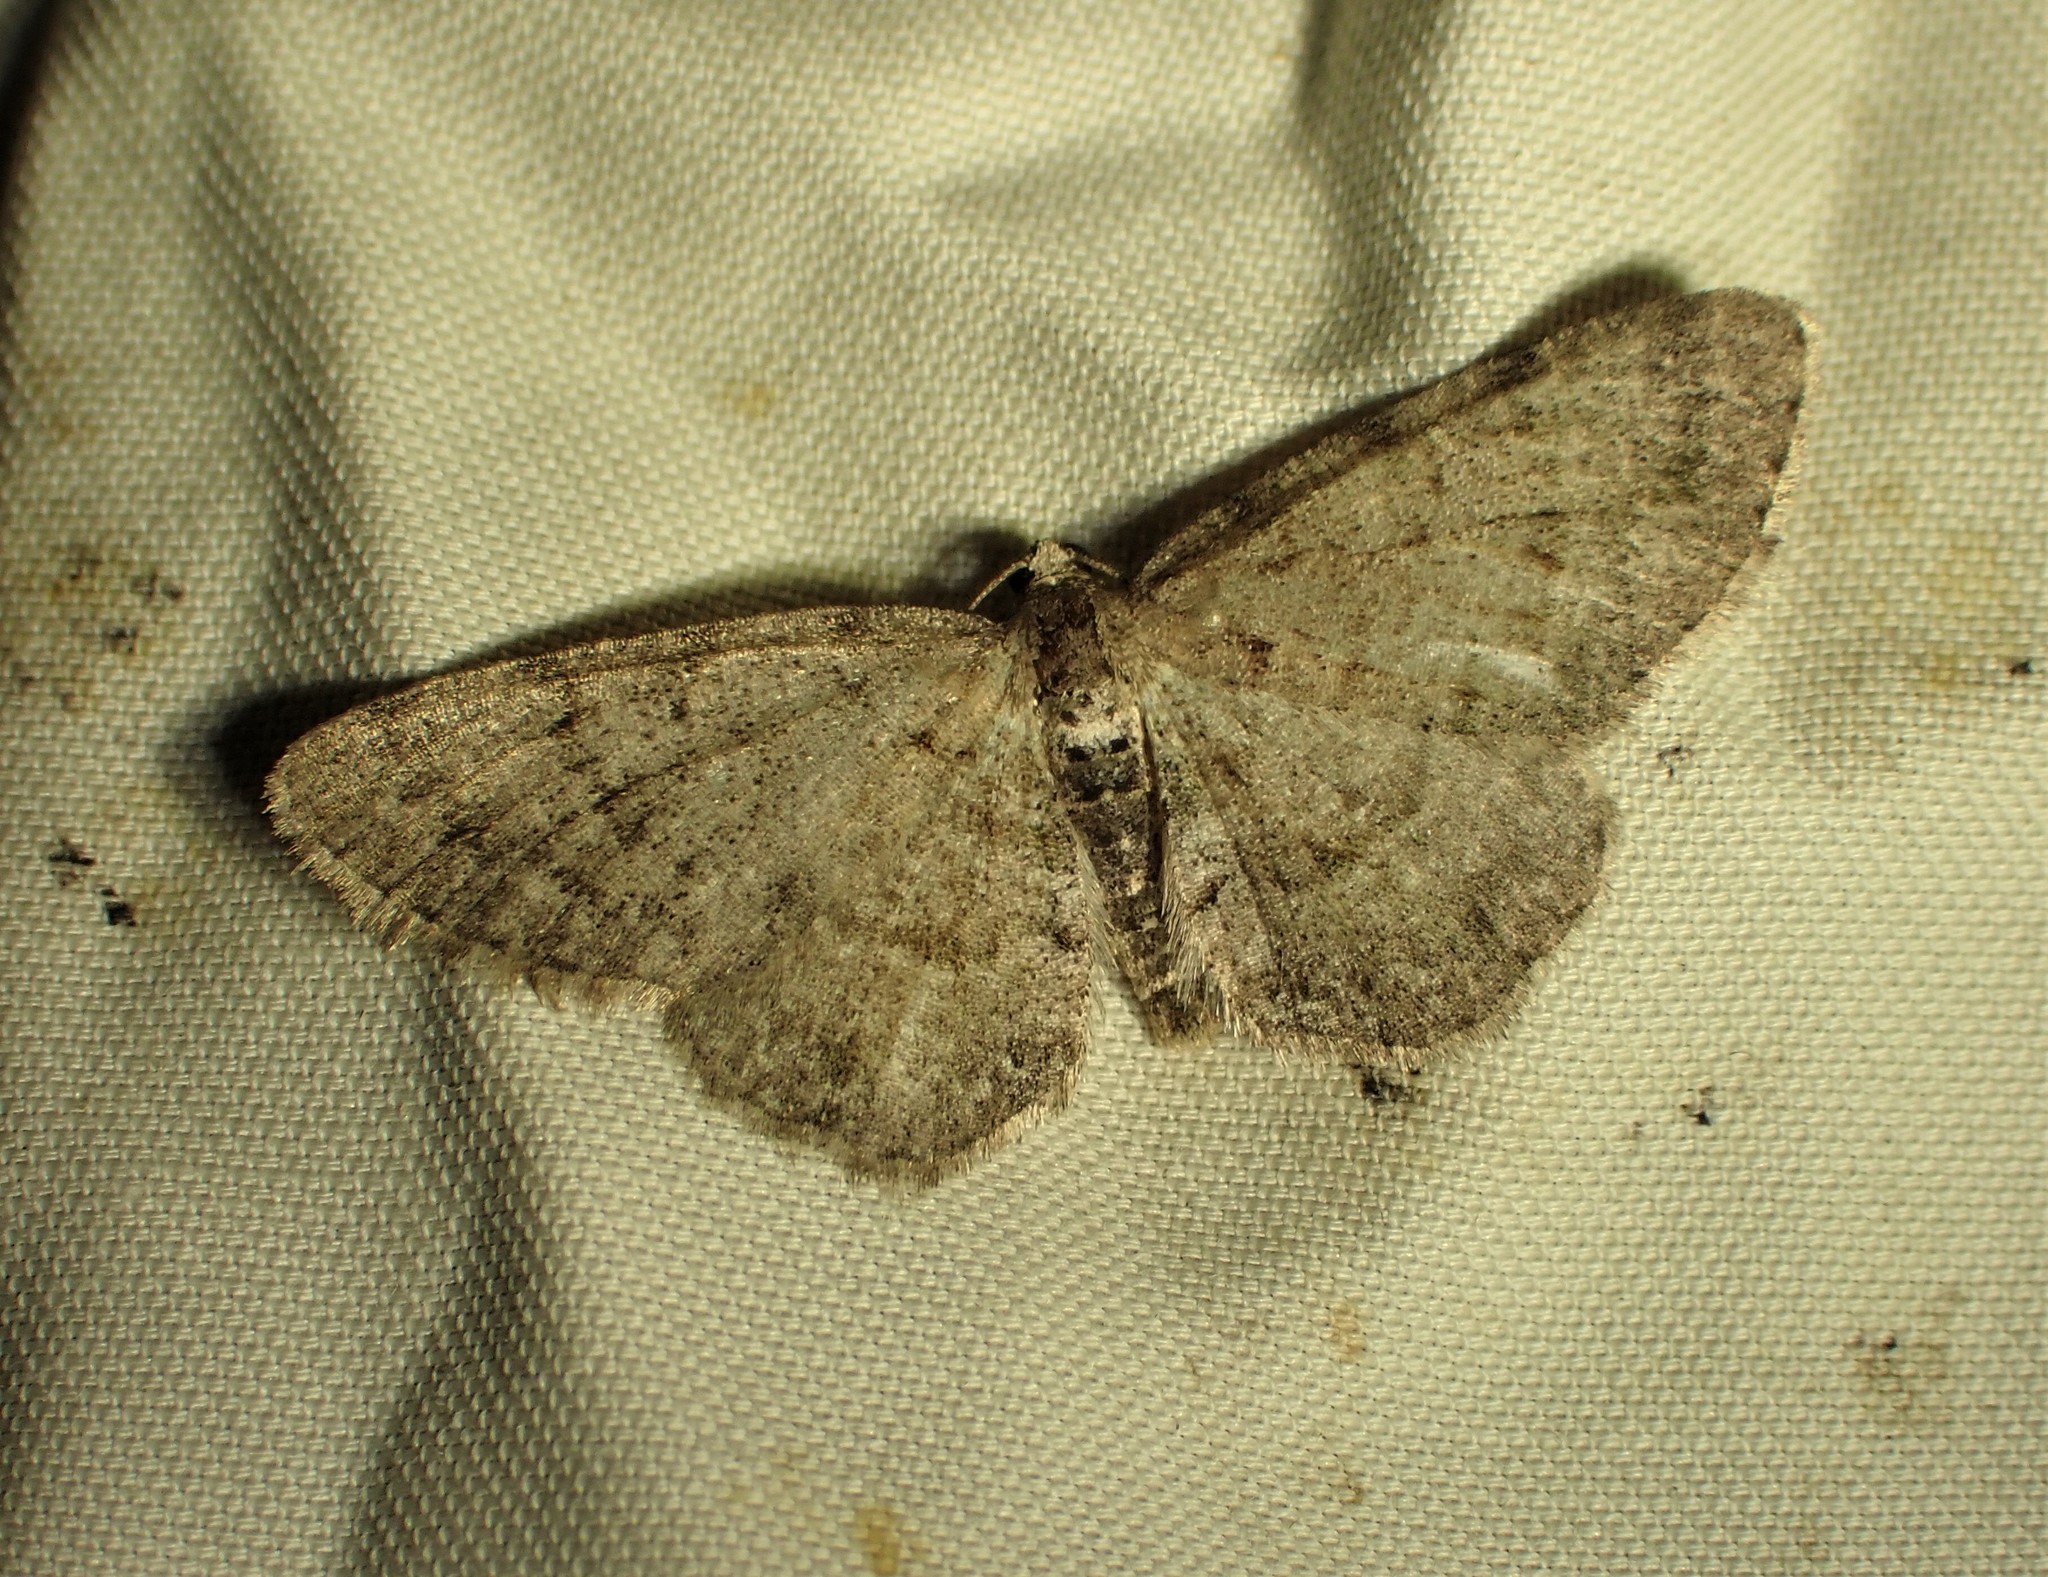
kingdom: Animalia
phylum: Arthropoda
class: Insecta
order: Lepidoptera
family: Geometridae
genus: Aethalura
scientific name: Aethalura intertexta
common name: Four-barred gray
